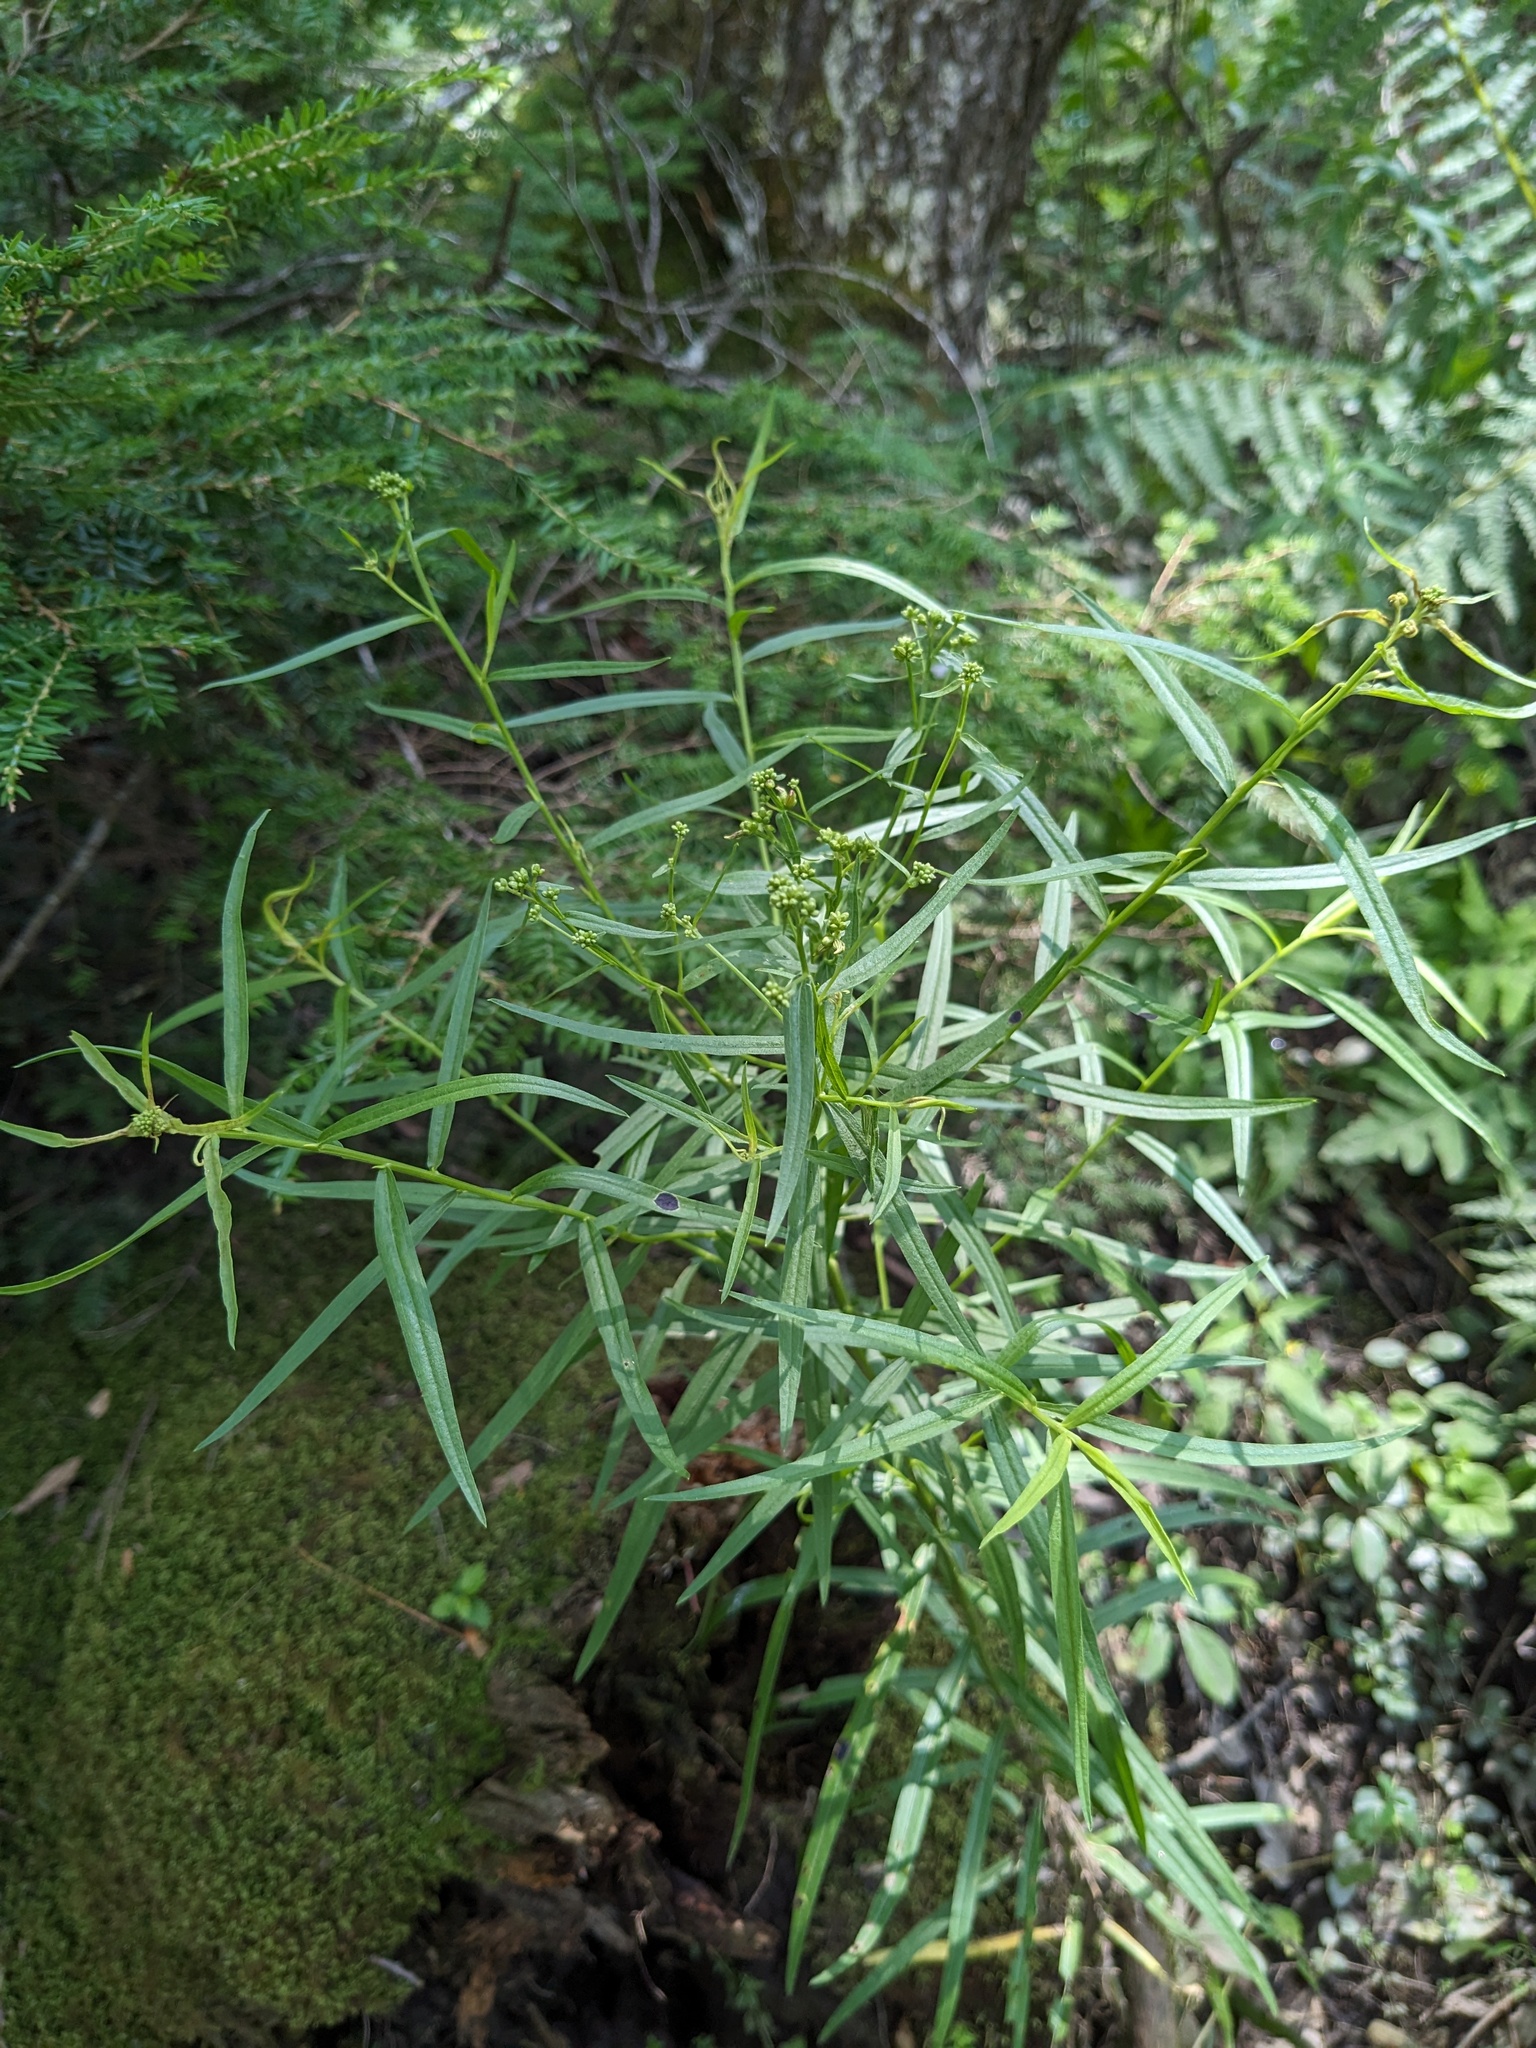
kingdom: Plantae
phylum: Tracheophyta
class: Magnoliopsida
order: Asterales
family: Asteraceae
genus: Euthamia
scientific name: Euthamia graminifolia
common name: Common goldentop
